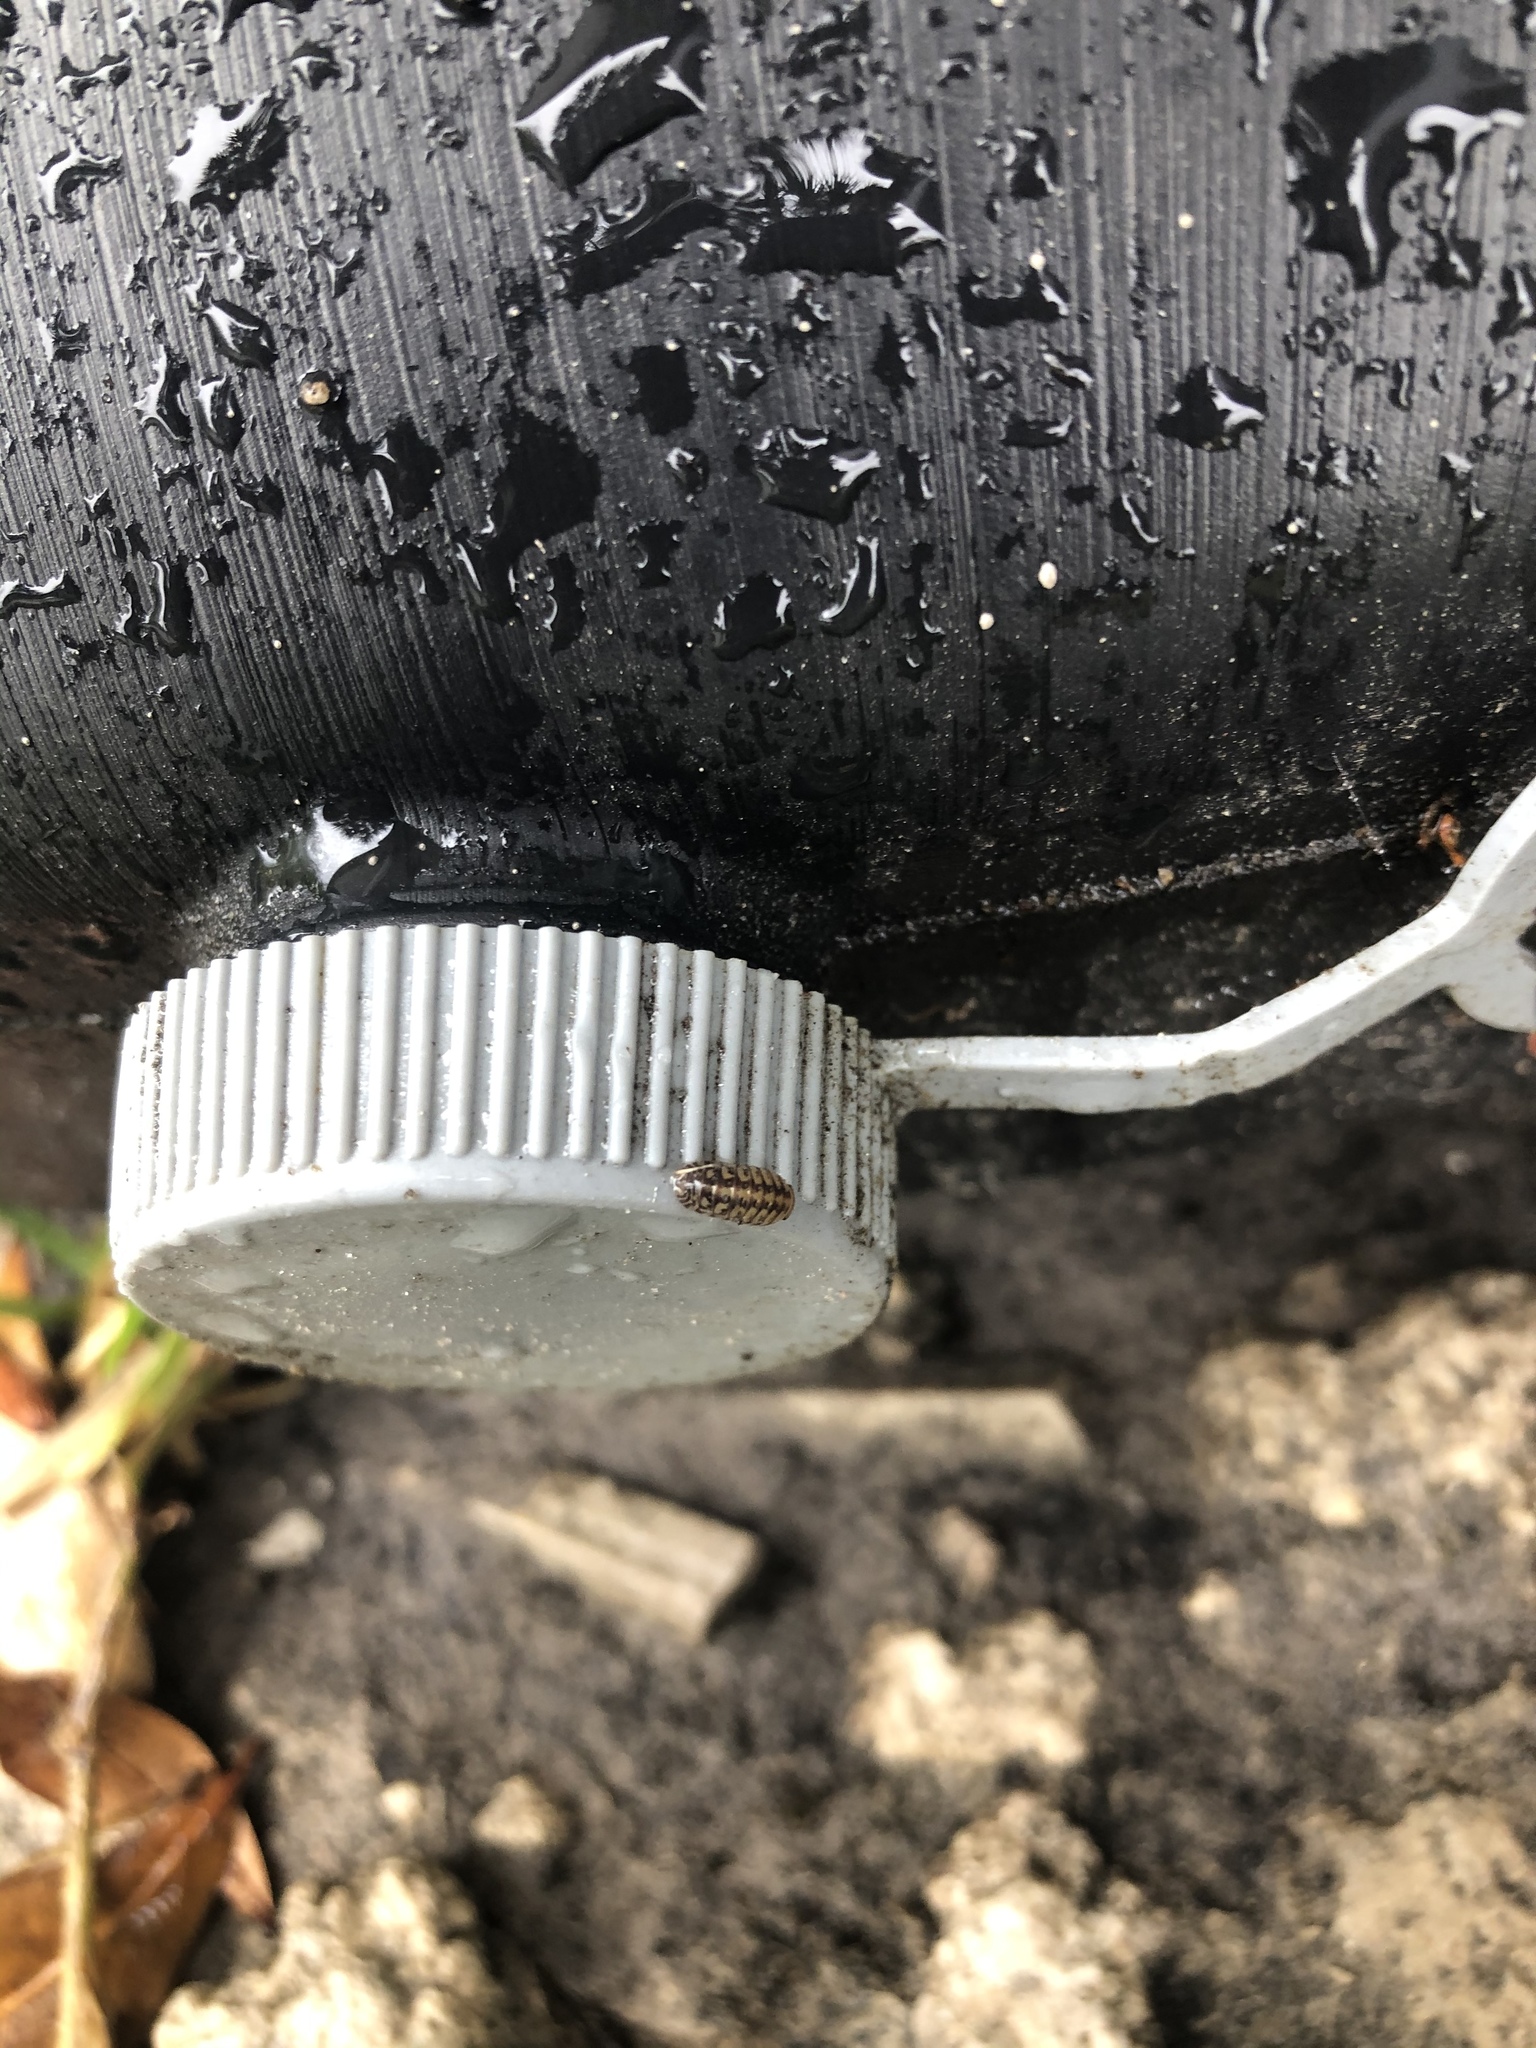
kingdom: Animalia
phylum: Arthropoda
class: Malacostraca
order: Isopoda
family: Armadillidae
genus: Venezillo
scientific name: Venezillo parvus
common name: Pillbug
